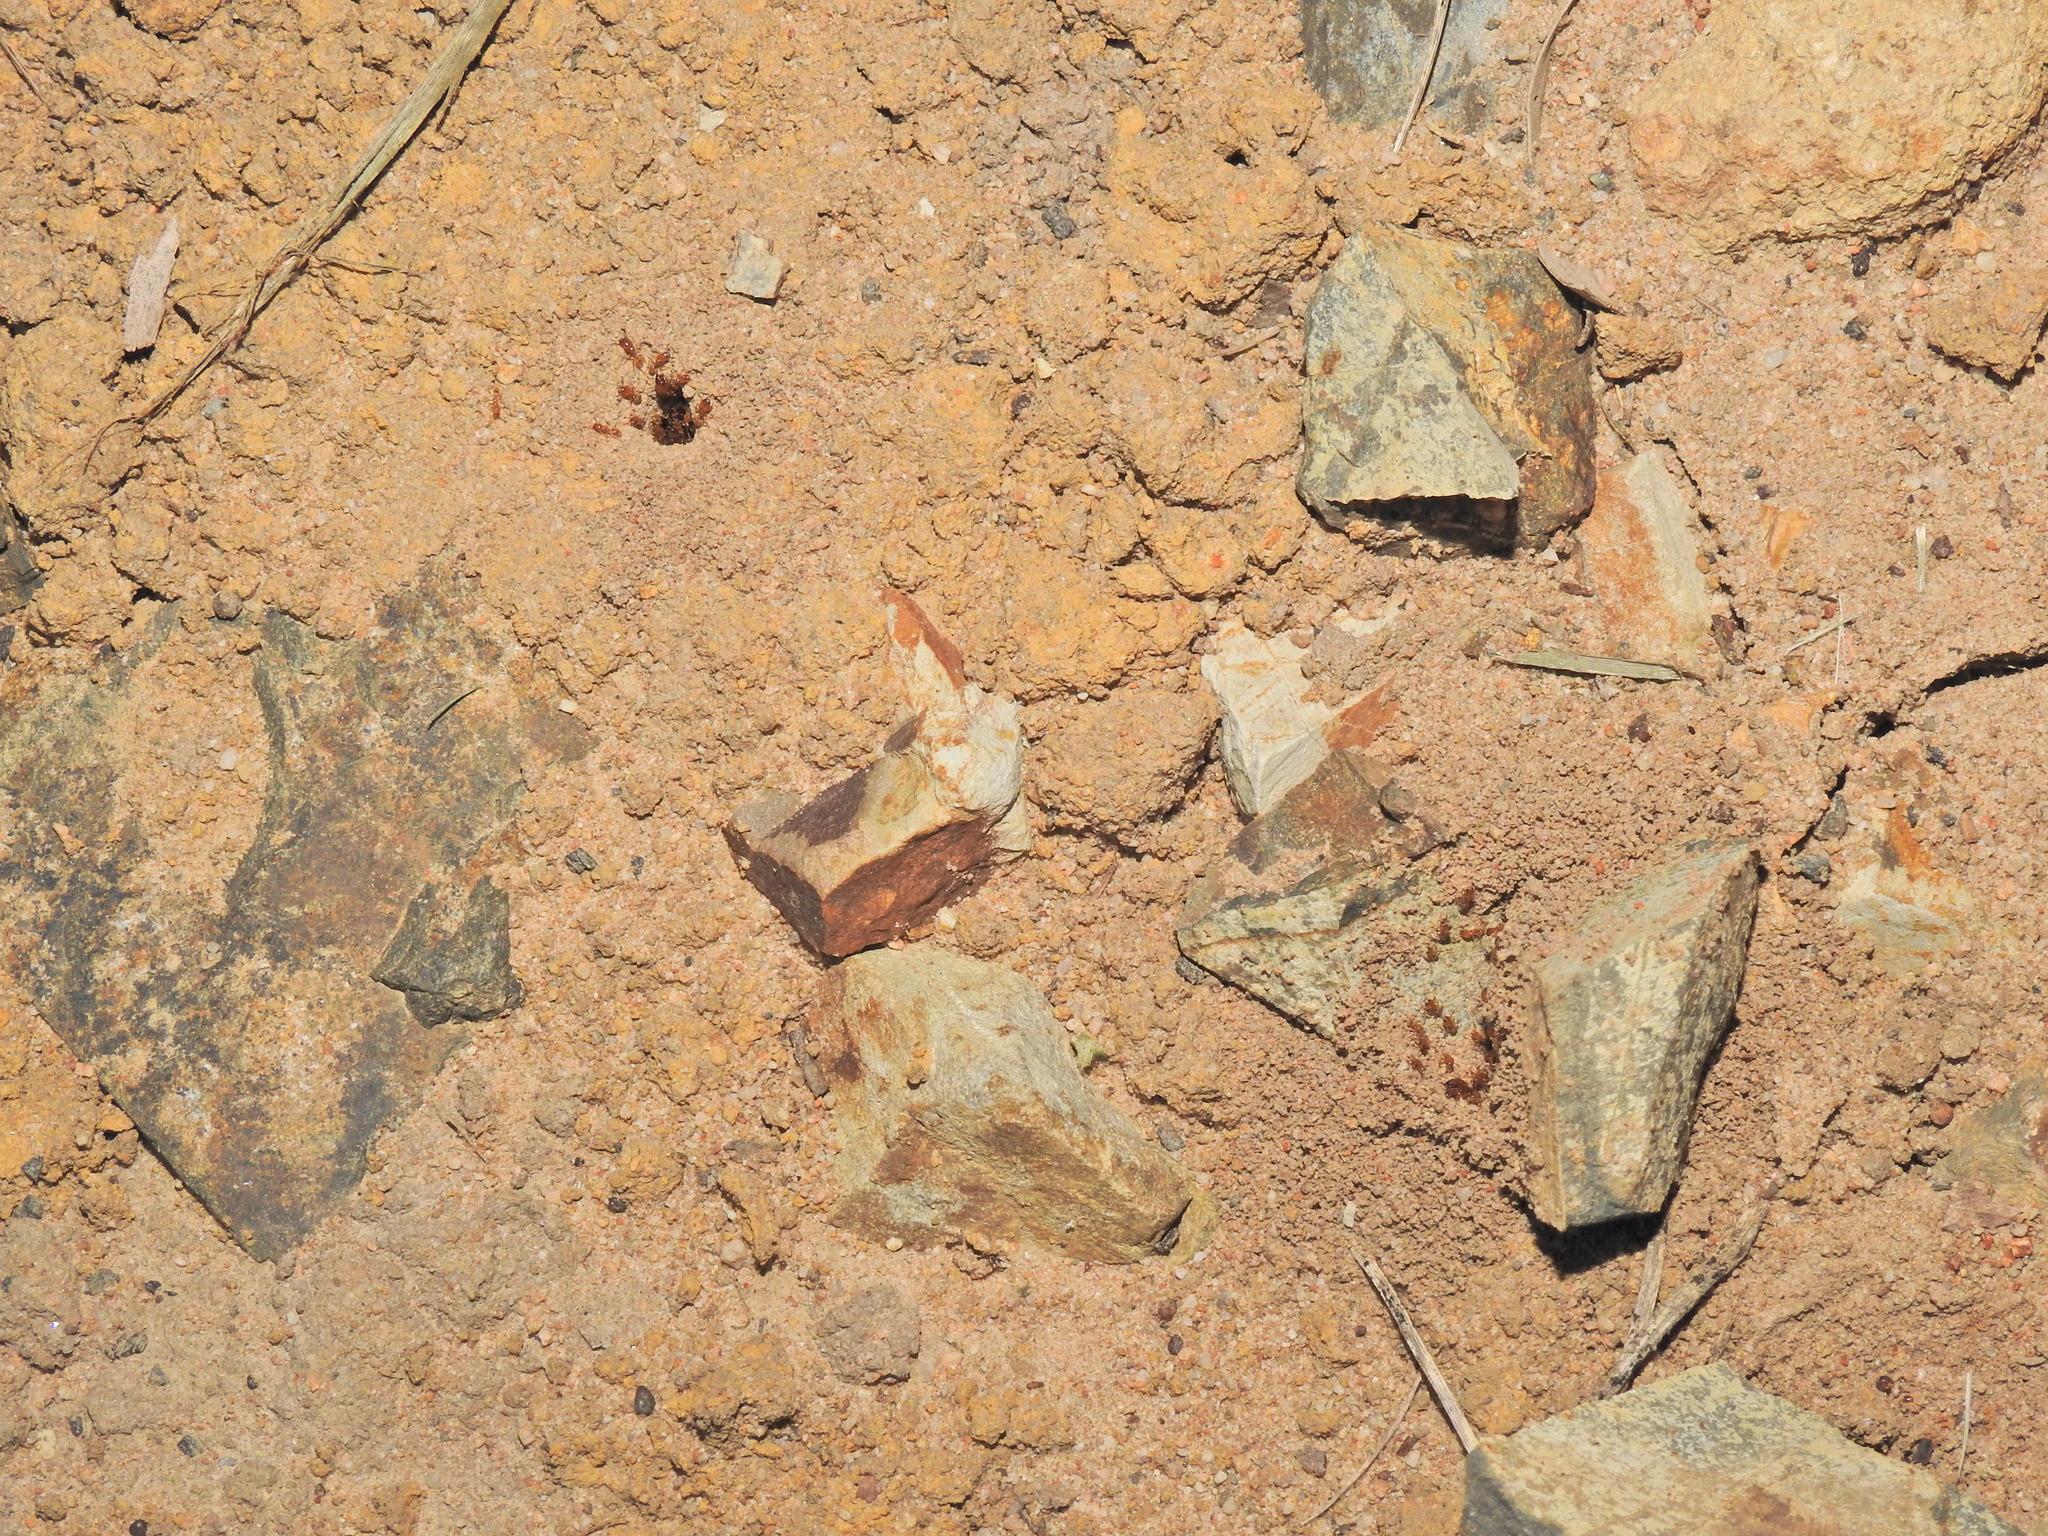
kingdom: Animalia
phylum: Arthropoda
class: Insecta
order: Hymenoptera
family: Formicidae
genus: Pheidole
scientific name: Pheidole
